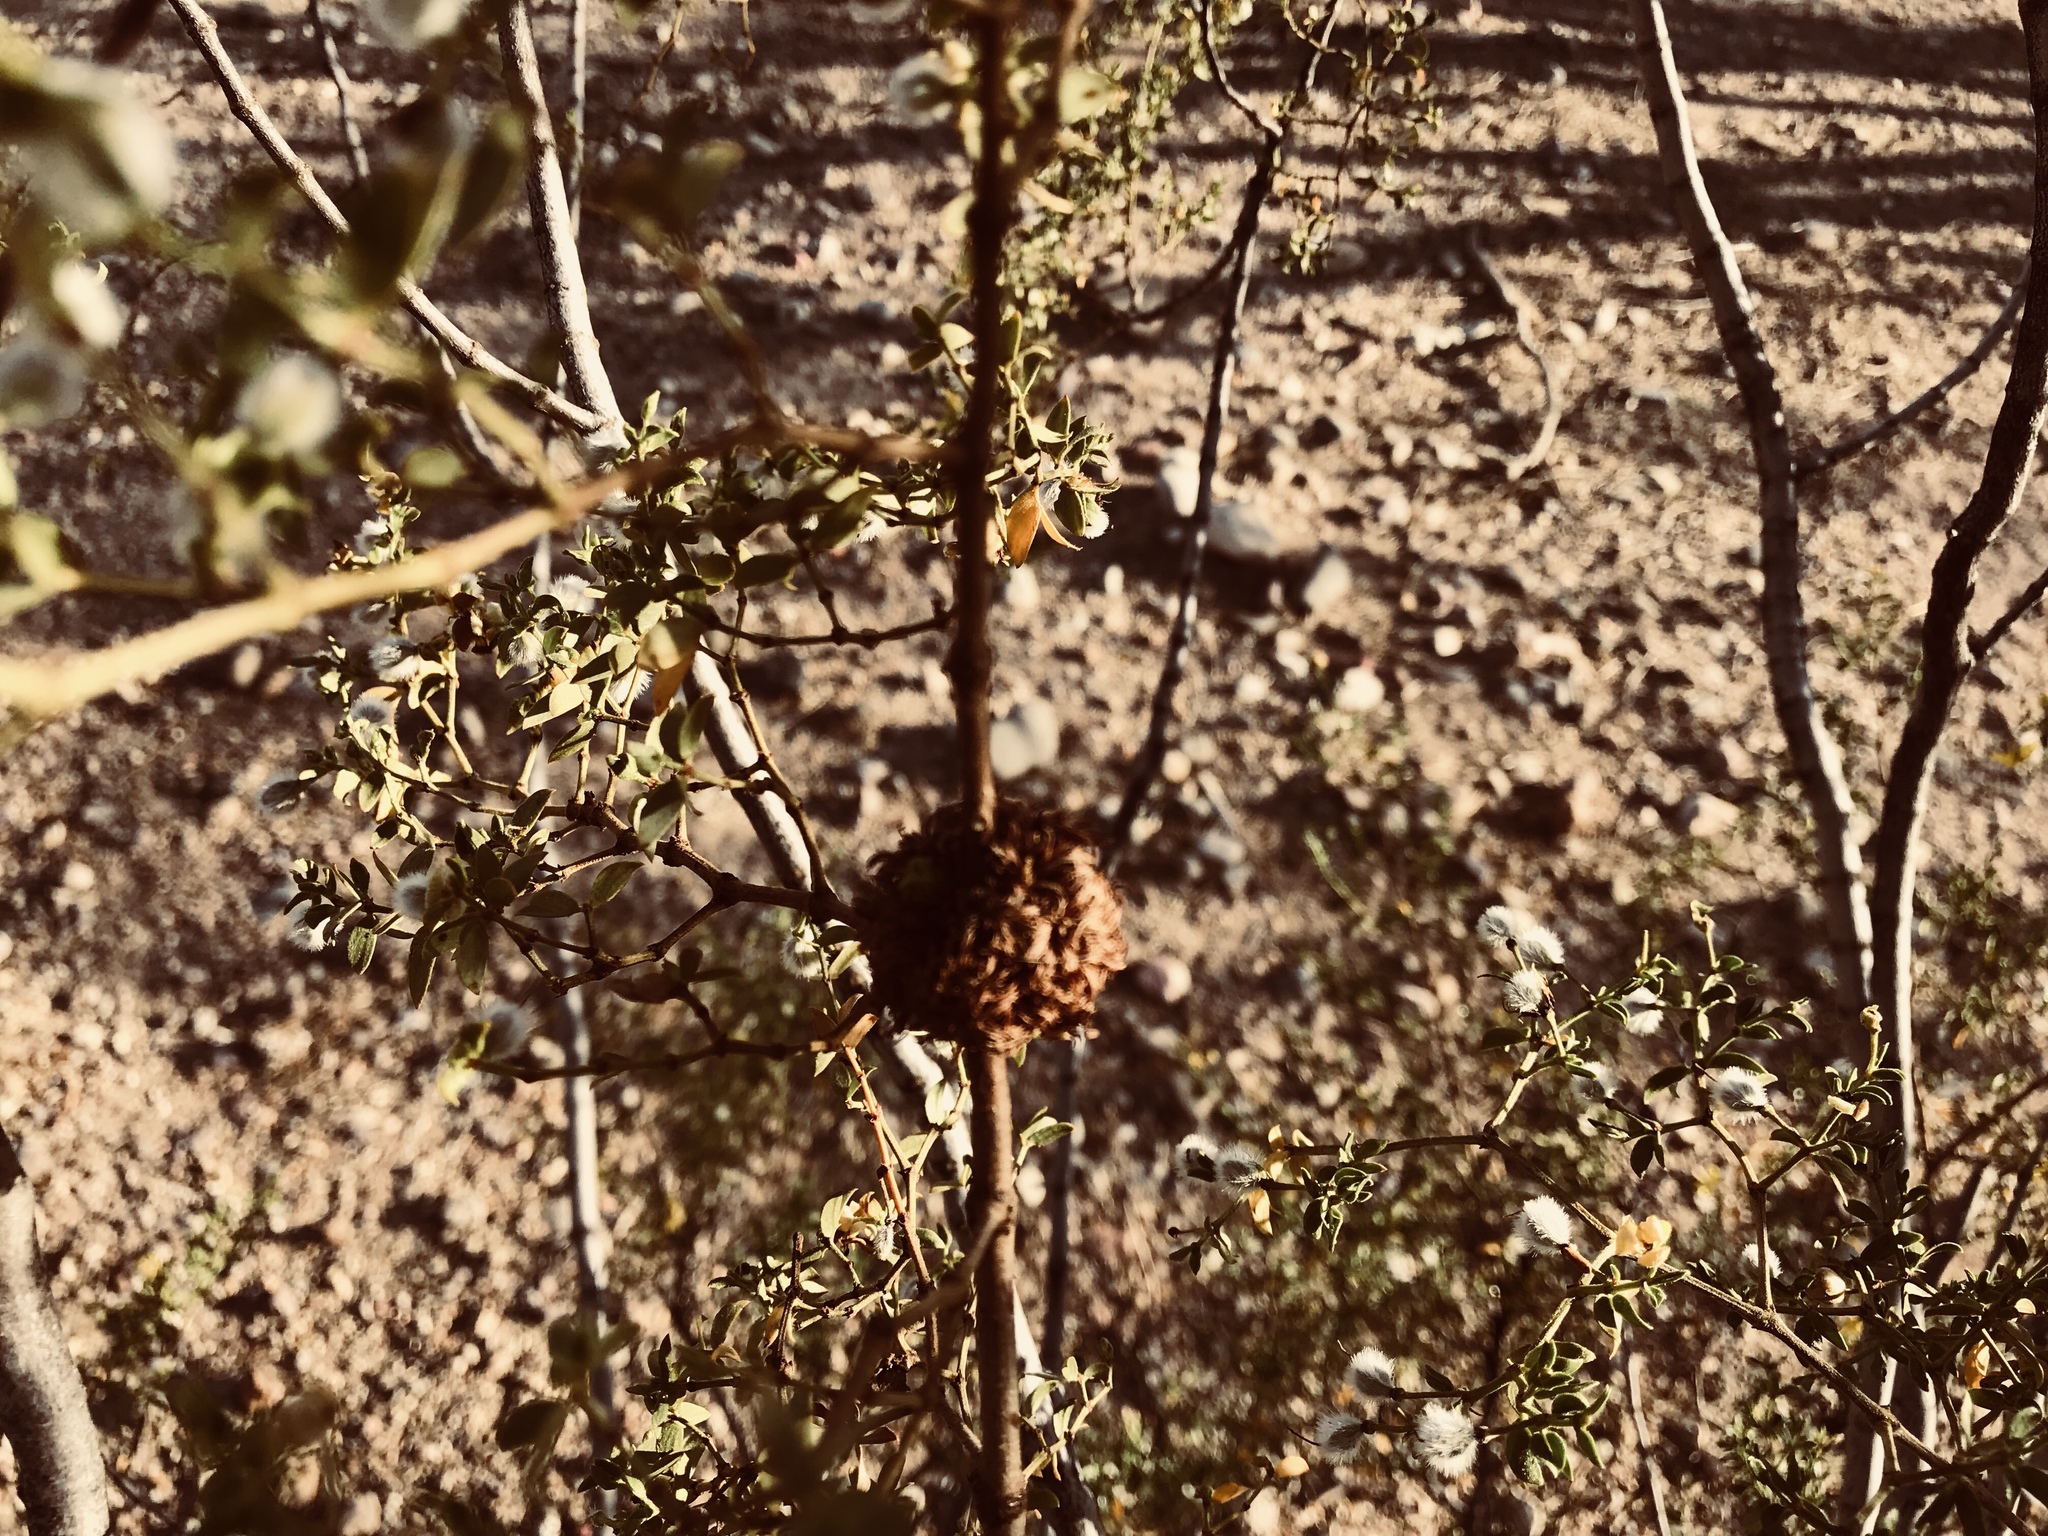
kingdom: Animalia
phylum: Arthropoda
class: Insecta
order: Diptera
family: Cecidomyiidae
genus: Asphondylia
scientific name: Asphondylia auripila
